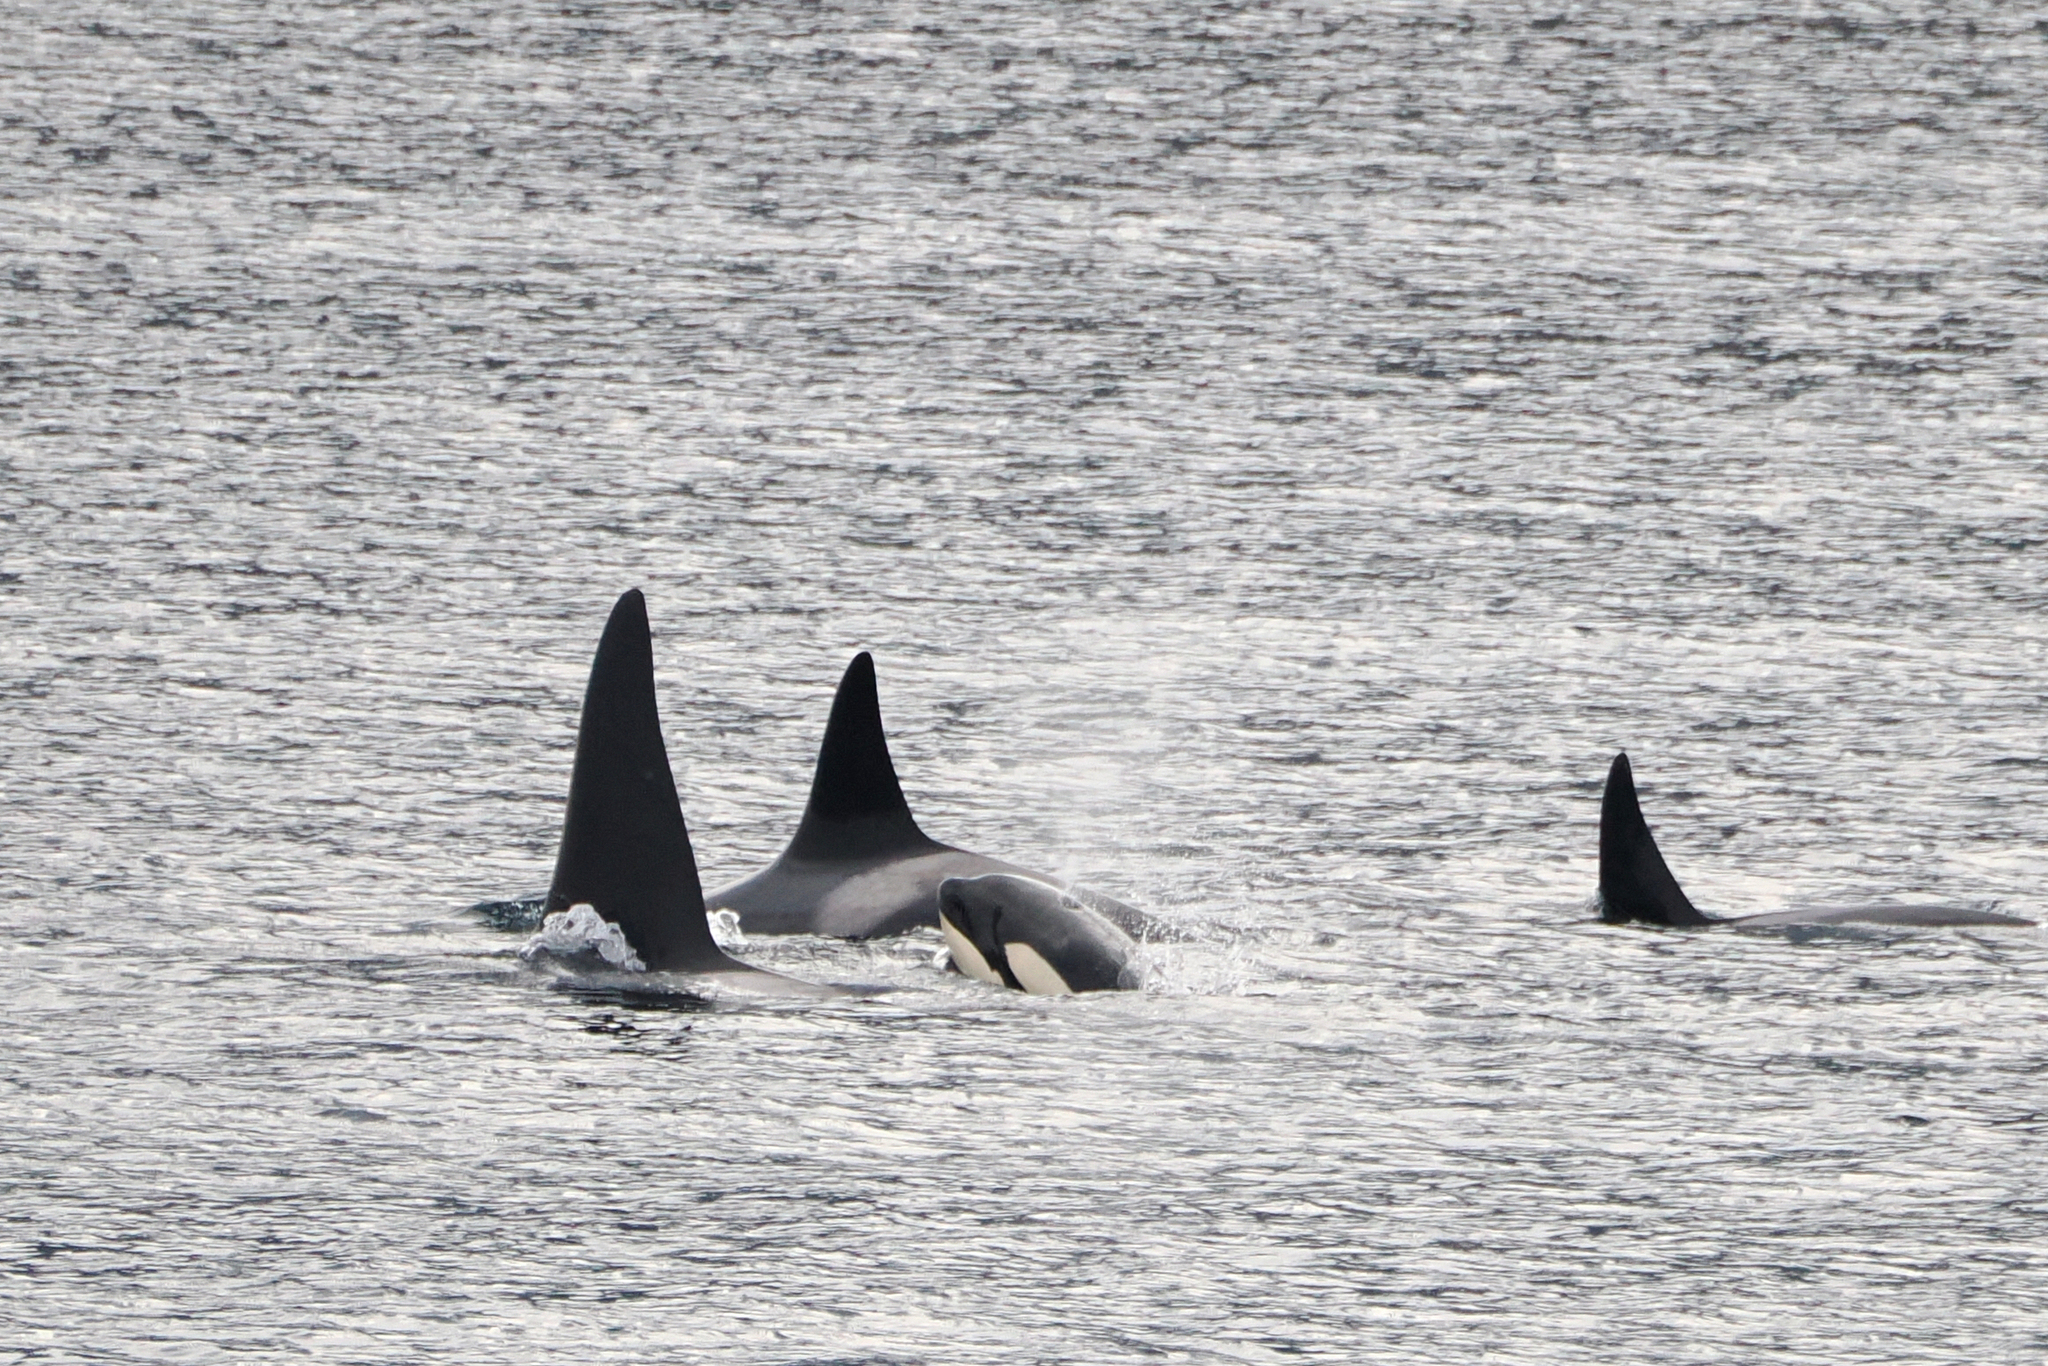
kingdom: Animalia
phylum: Chordata
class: Mammalia
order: Cetacea
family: Delphinidae
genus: Orcinus
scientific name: Orcinus orca
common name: Killer whale
